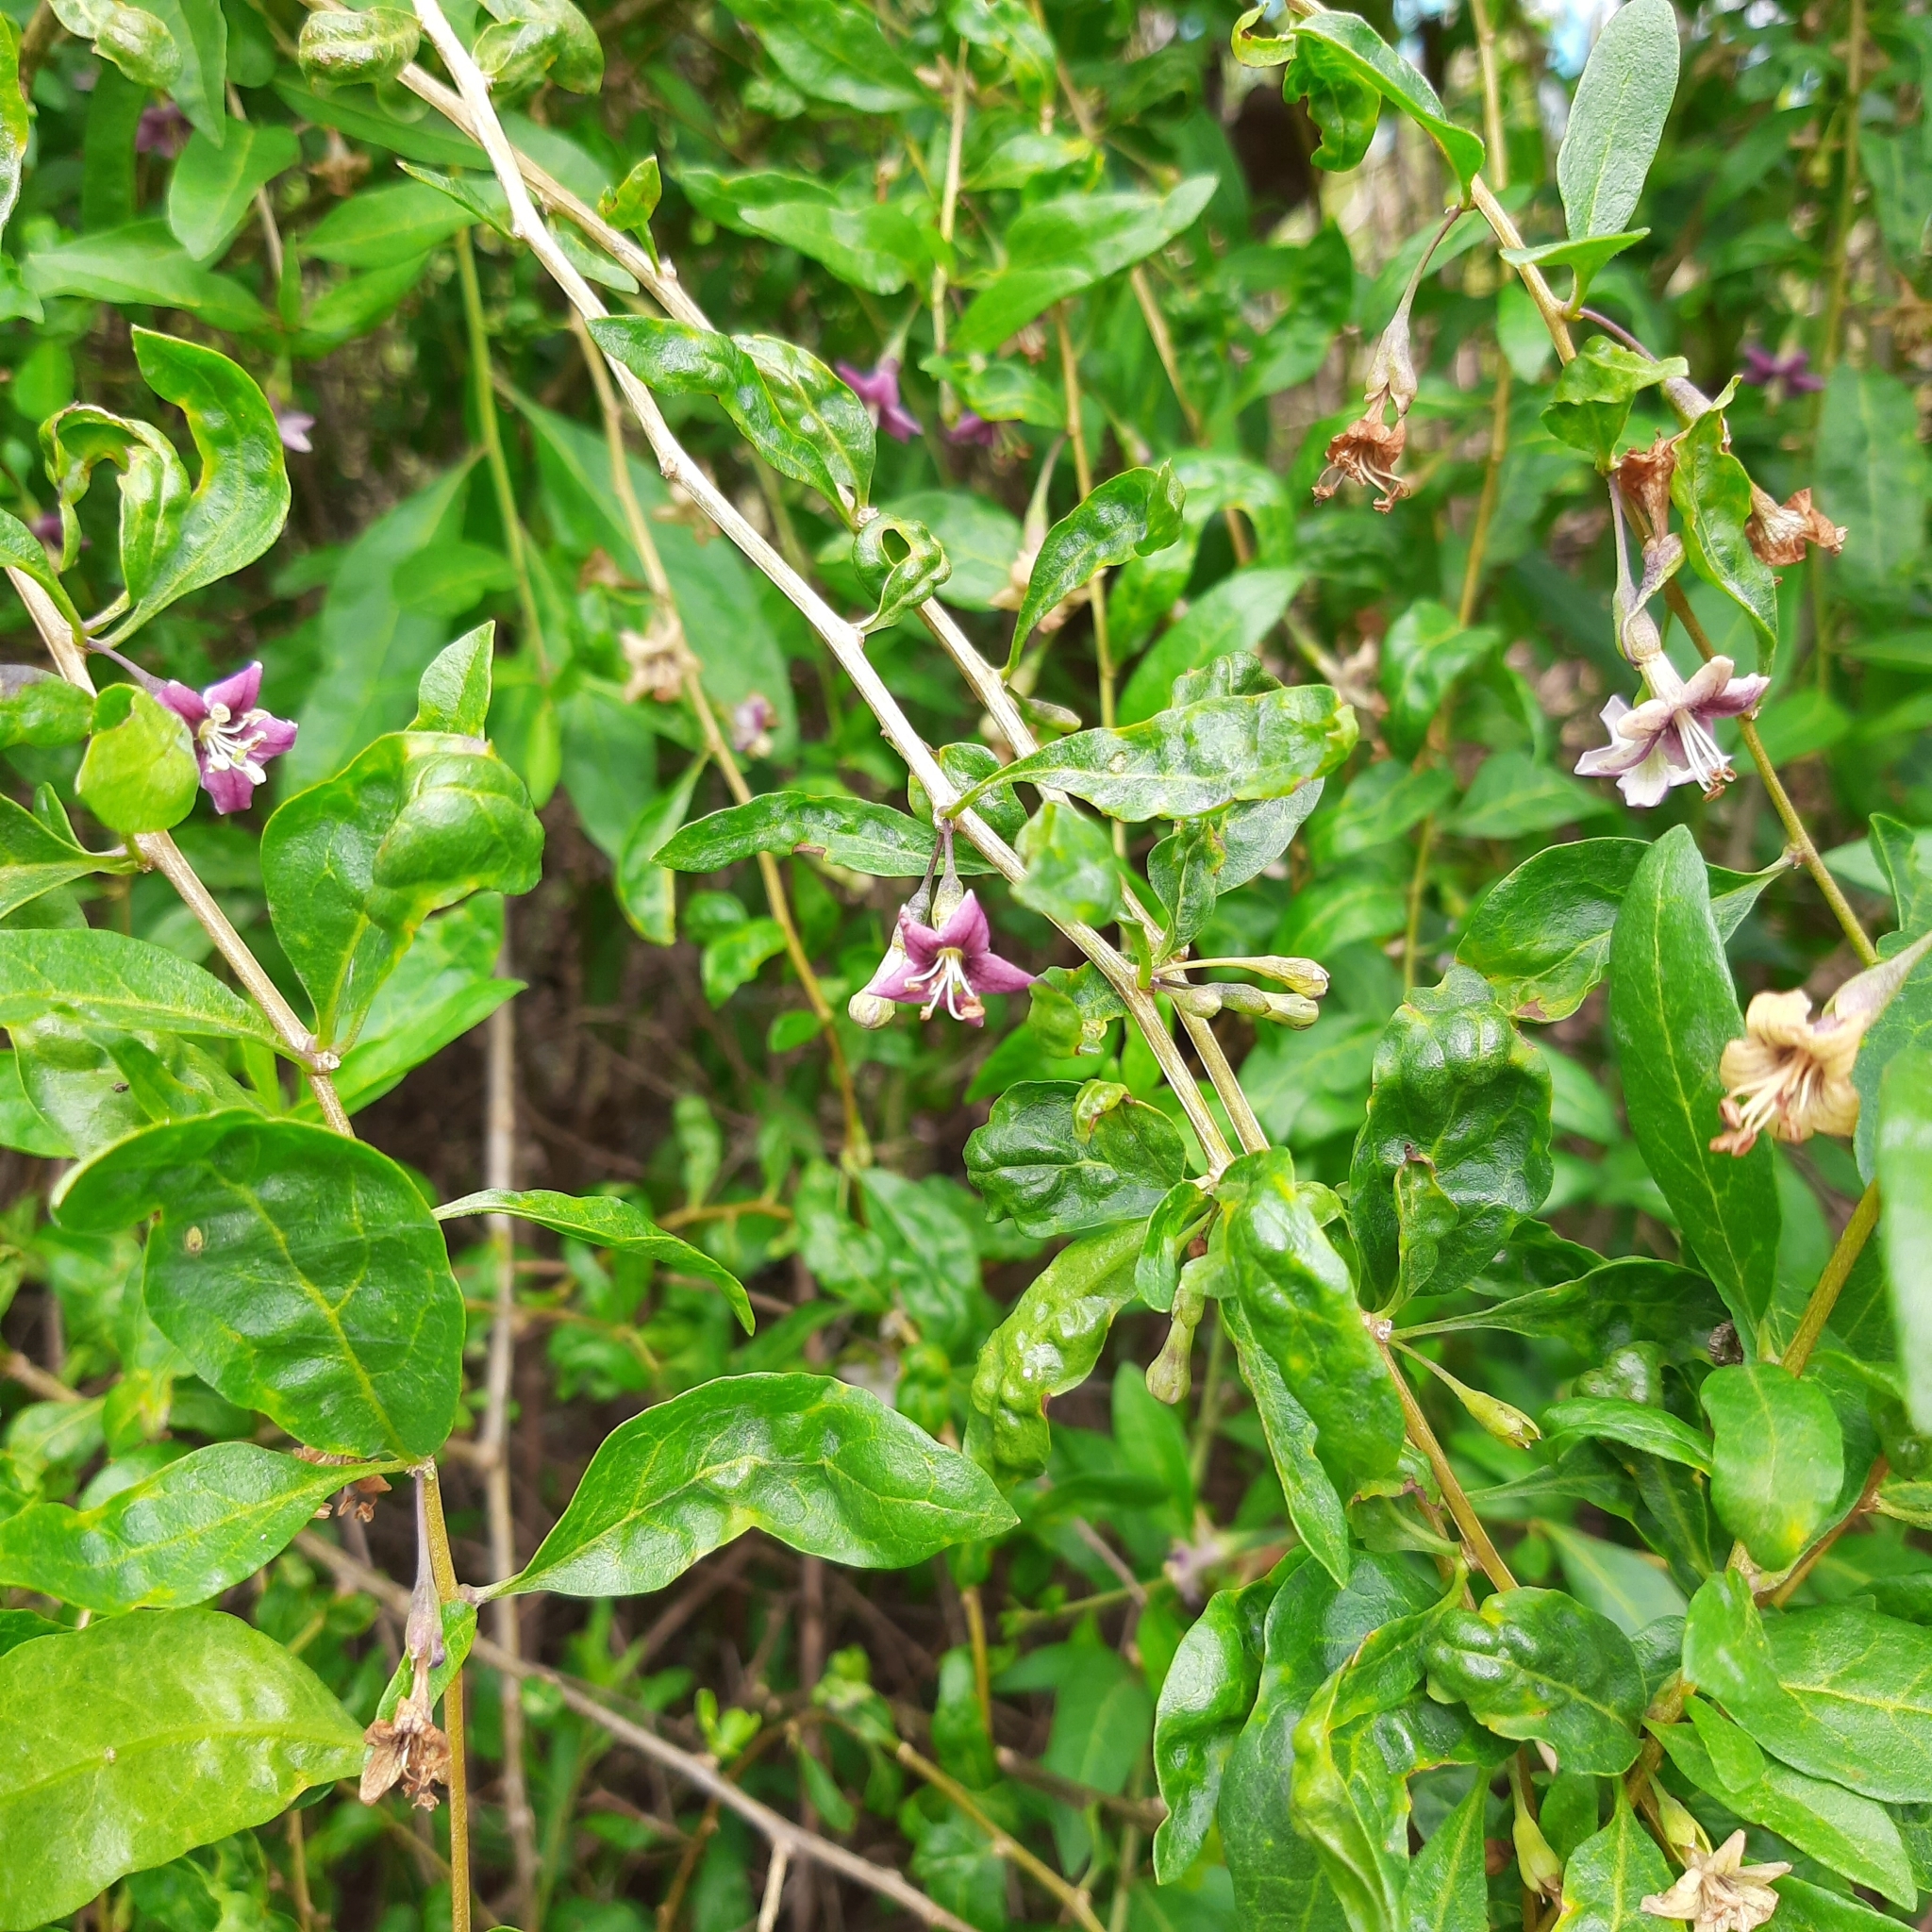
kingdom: Plantae
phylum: Tracheophyta
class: Magnoliopsida
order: Solanales
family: Solanaceae
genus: Lycium
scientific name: Lycium barbarum
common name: Duke of argyll's teaplant
